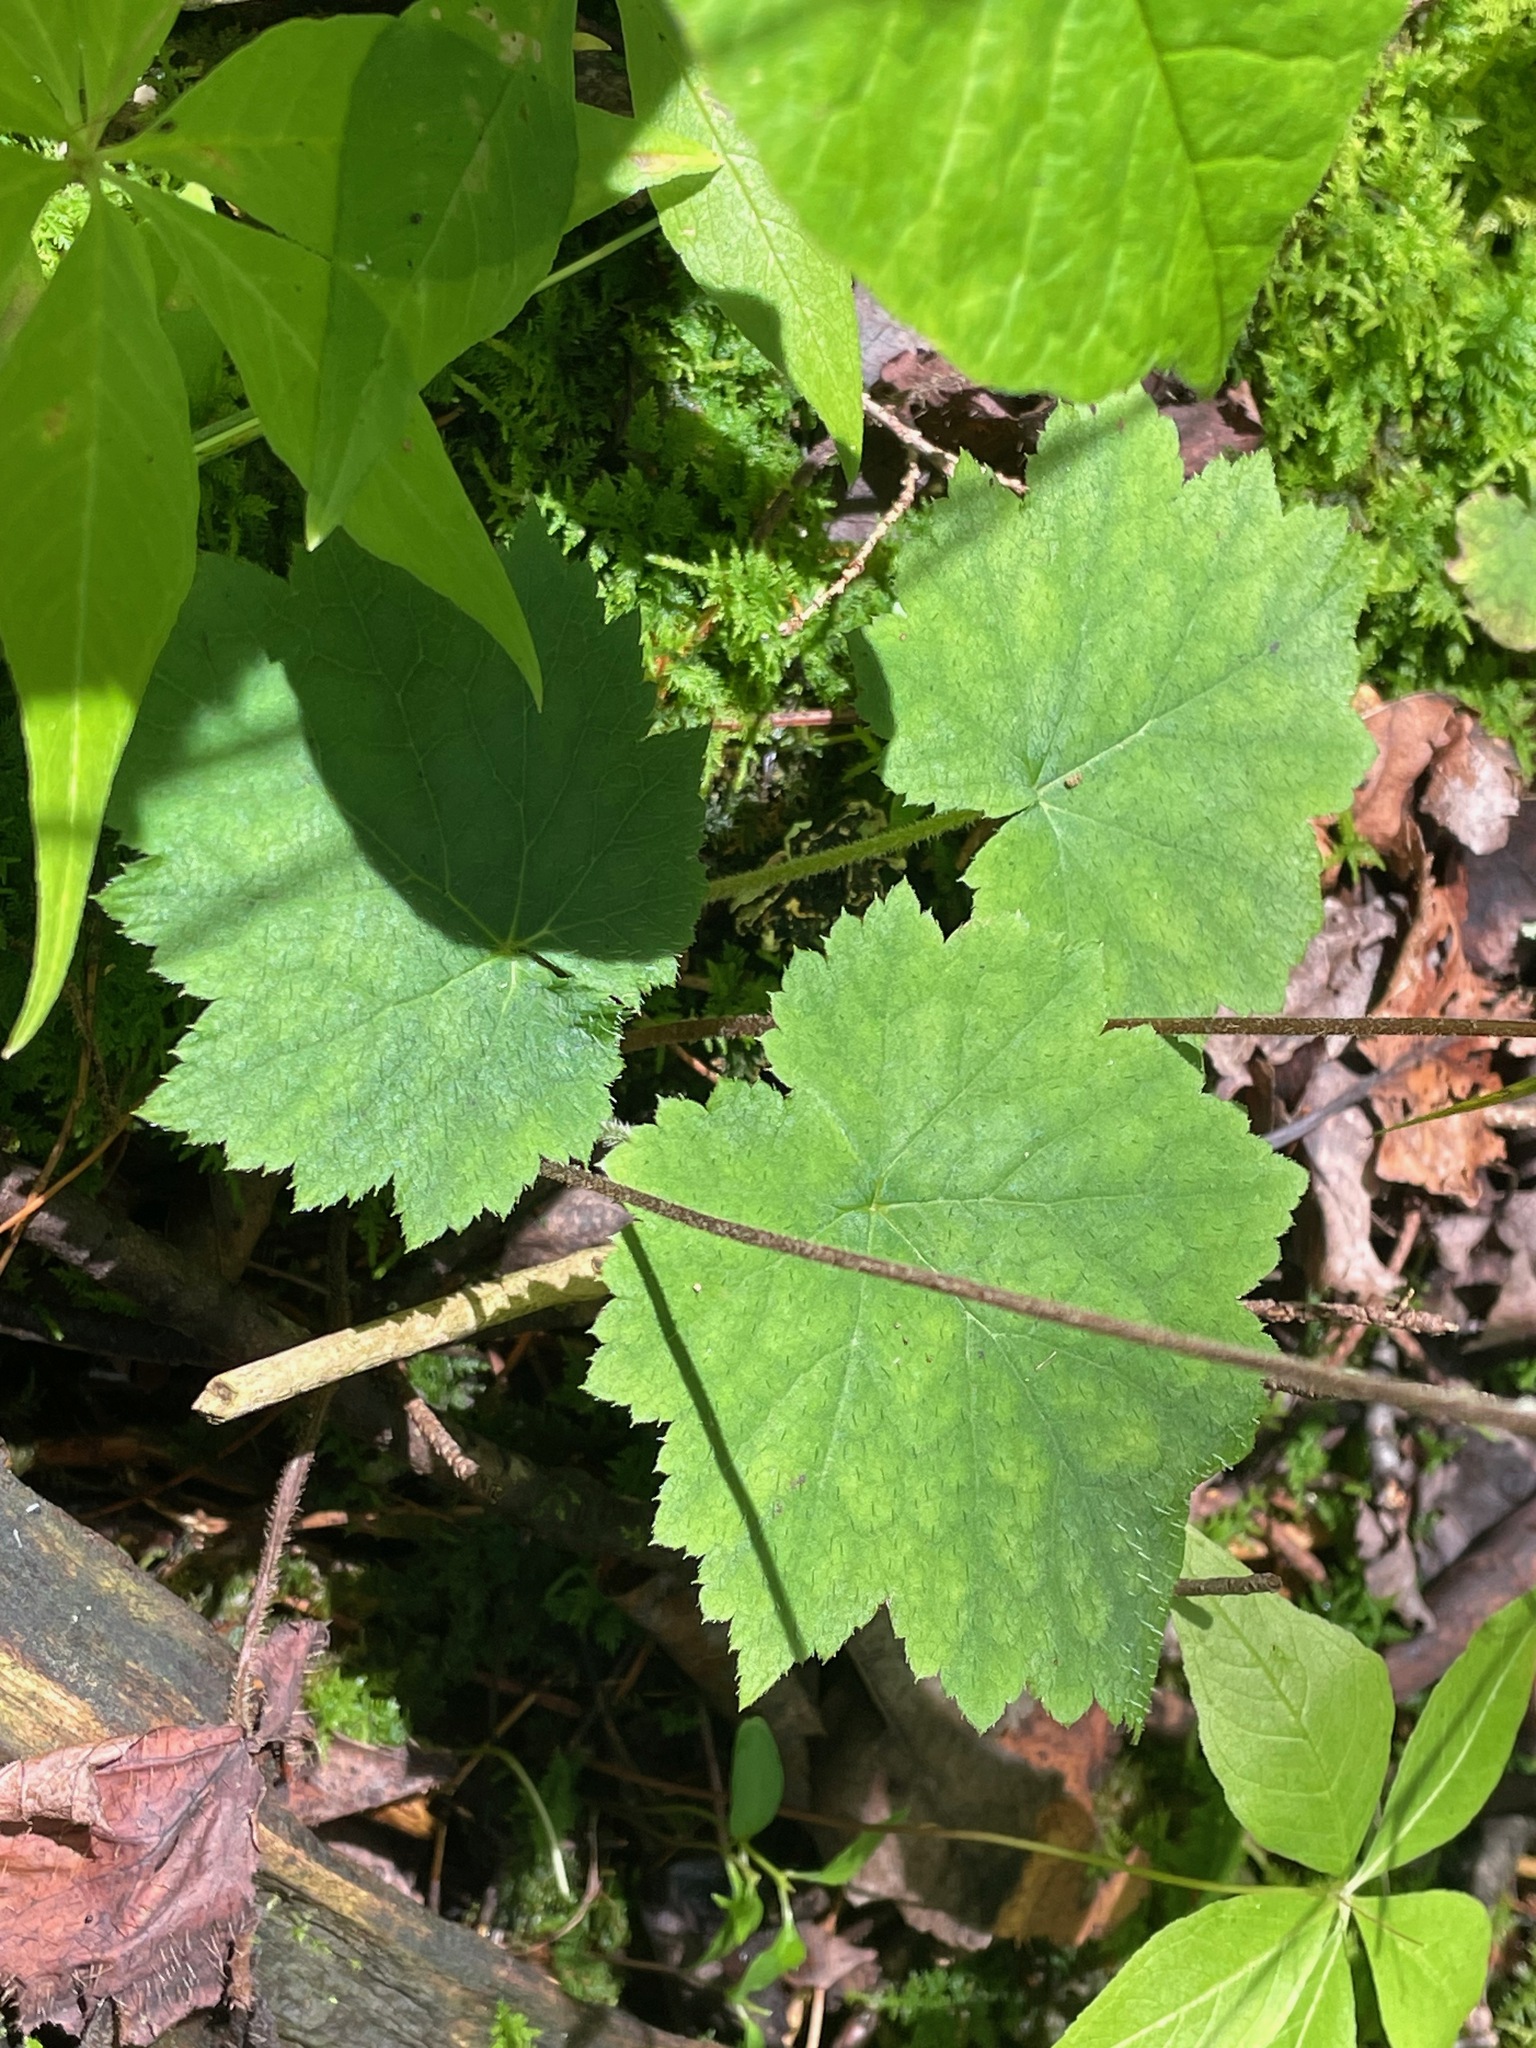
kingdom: Plantae
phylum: Tracheophyta
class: Magnoliopsida
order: Saxifragales
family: Saxifragaceae
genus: Tiarella
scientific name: Tiarella stolonifera
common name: Stoloniferous foamflower
